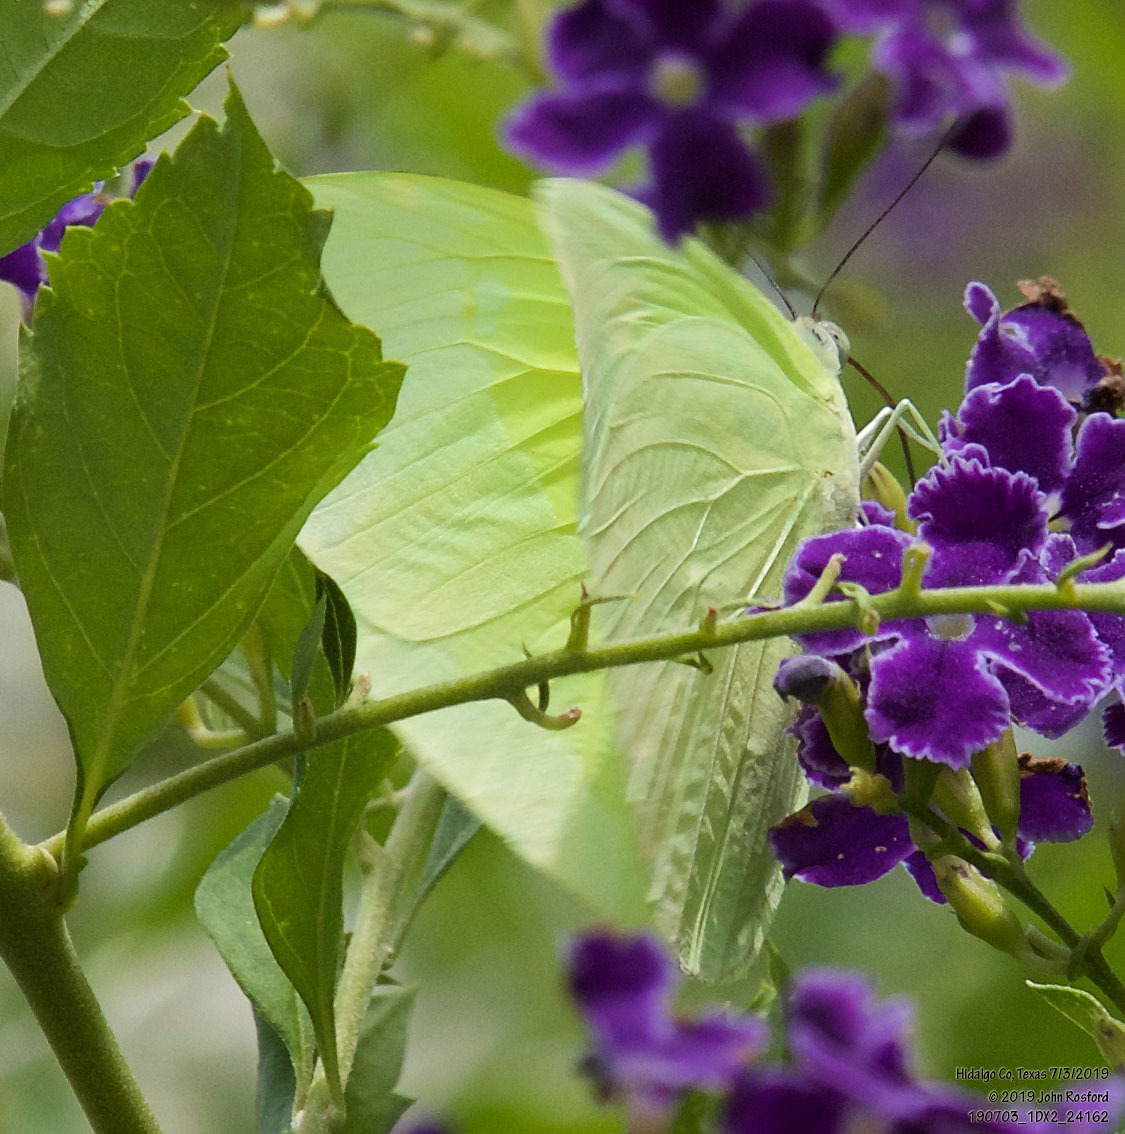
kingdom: Animalia
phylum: Arthropoda
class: Insecta
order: Lepidoptera
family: Pieridae
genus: Aphrissa
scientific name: Aphrissa statira
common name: Statira sulphur
